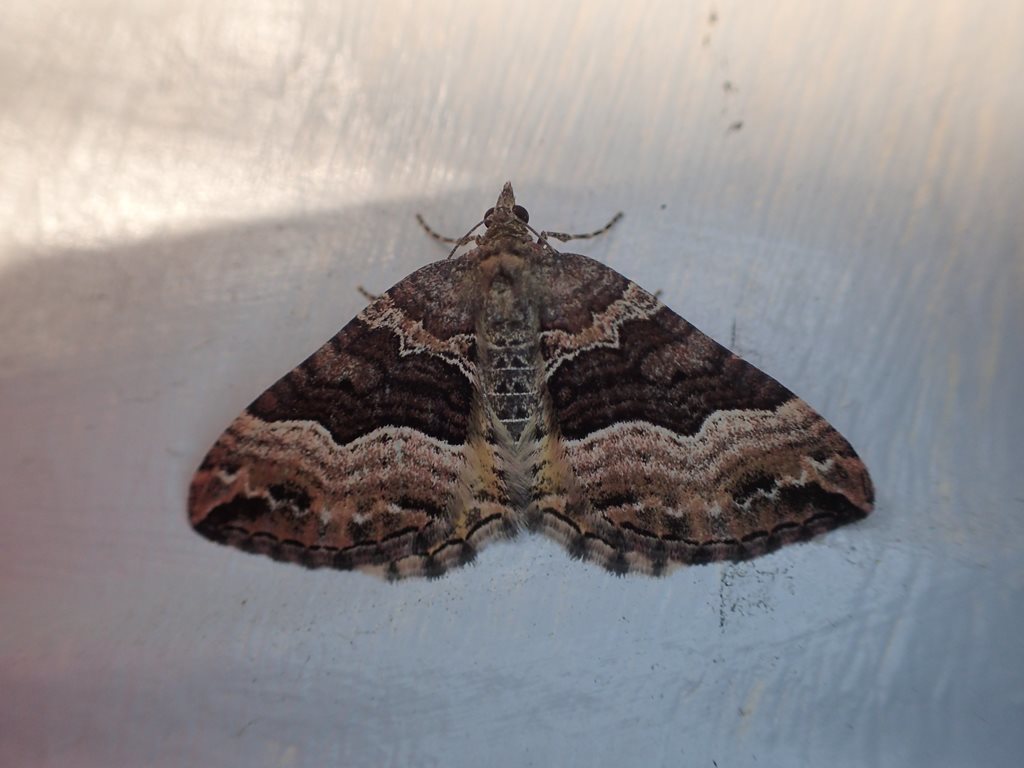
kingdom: Animalia
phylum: Arthropoda
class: Insecta
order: Lepidoptera
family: Geometridae
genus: Chrysolarentia
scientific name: Chrysolarentia lucidulata
